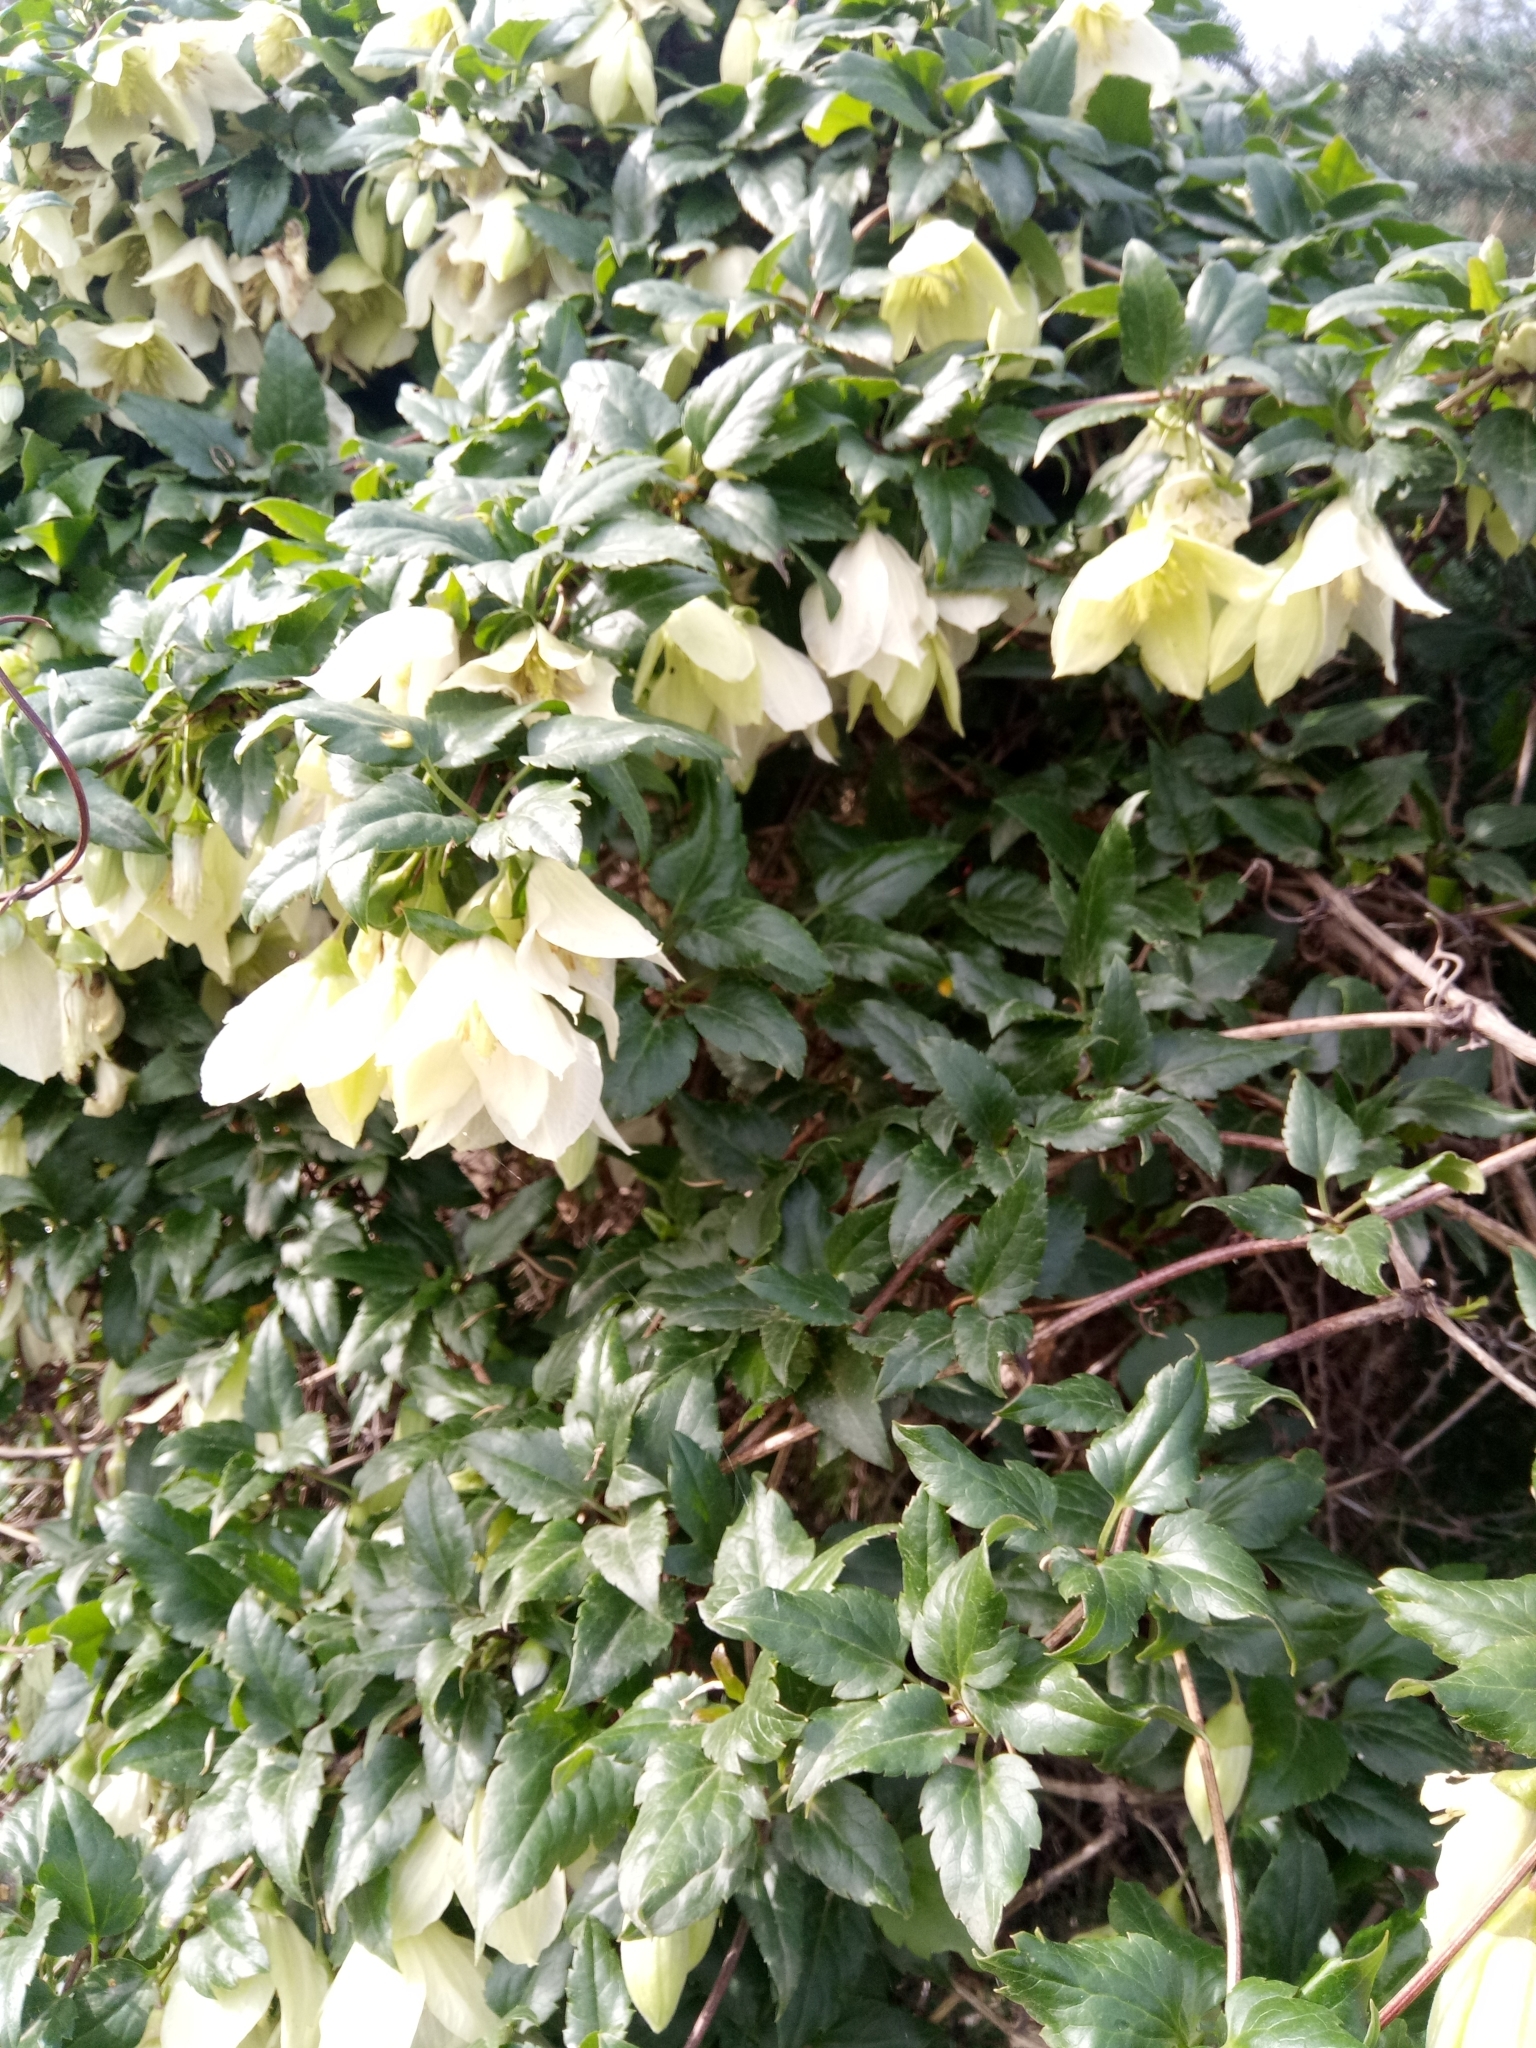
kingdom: Plantae
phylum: Tracheophyta
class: Magnoliopsida
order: Ranunculales
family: Ranunculaceae
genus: Clematis
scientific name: Clematis cirrhosa
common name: Early virgin's-bower
